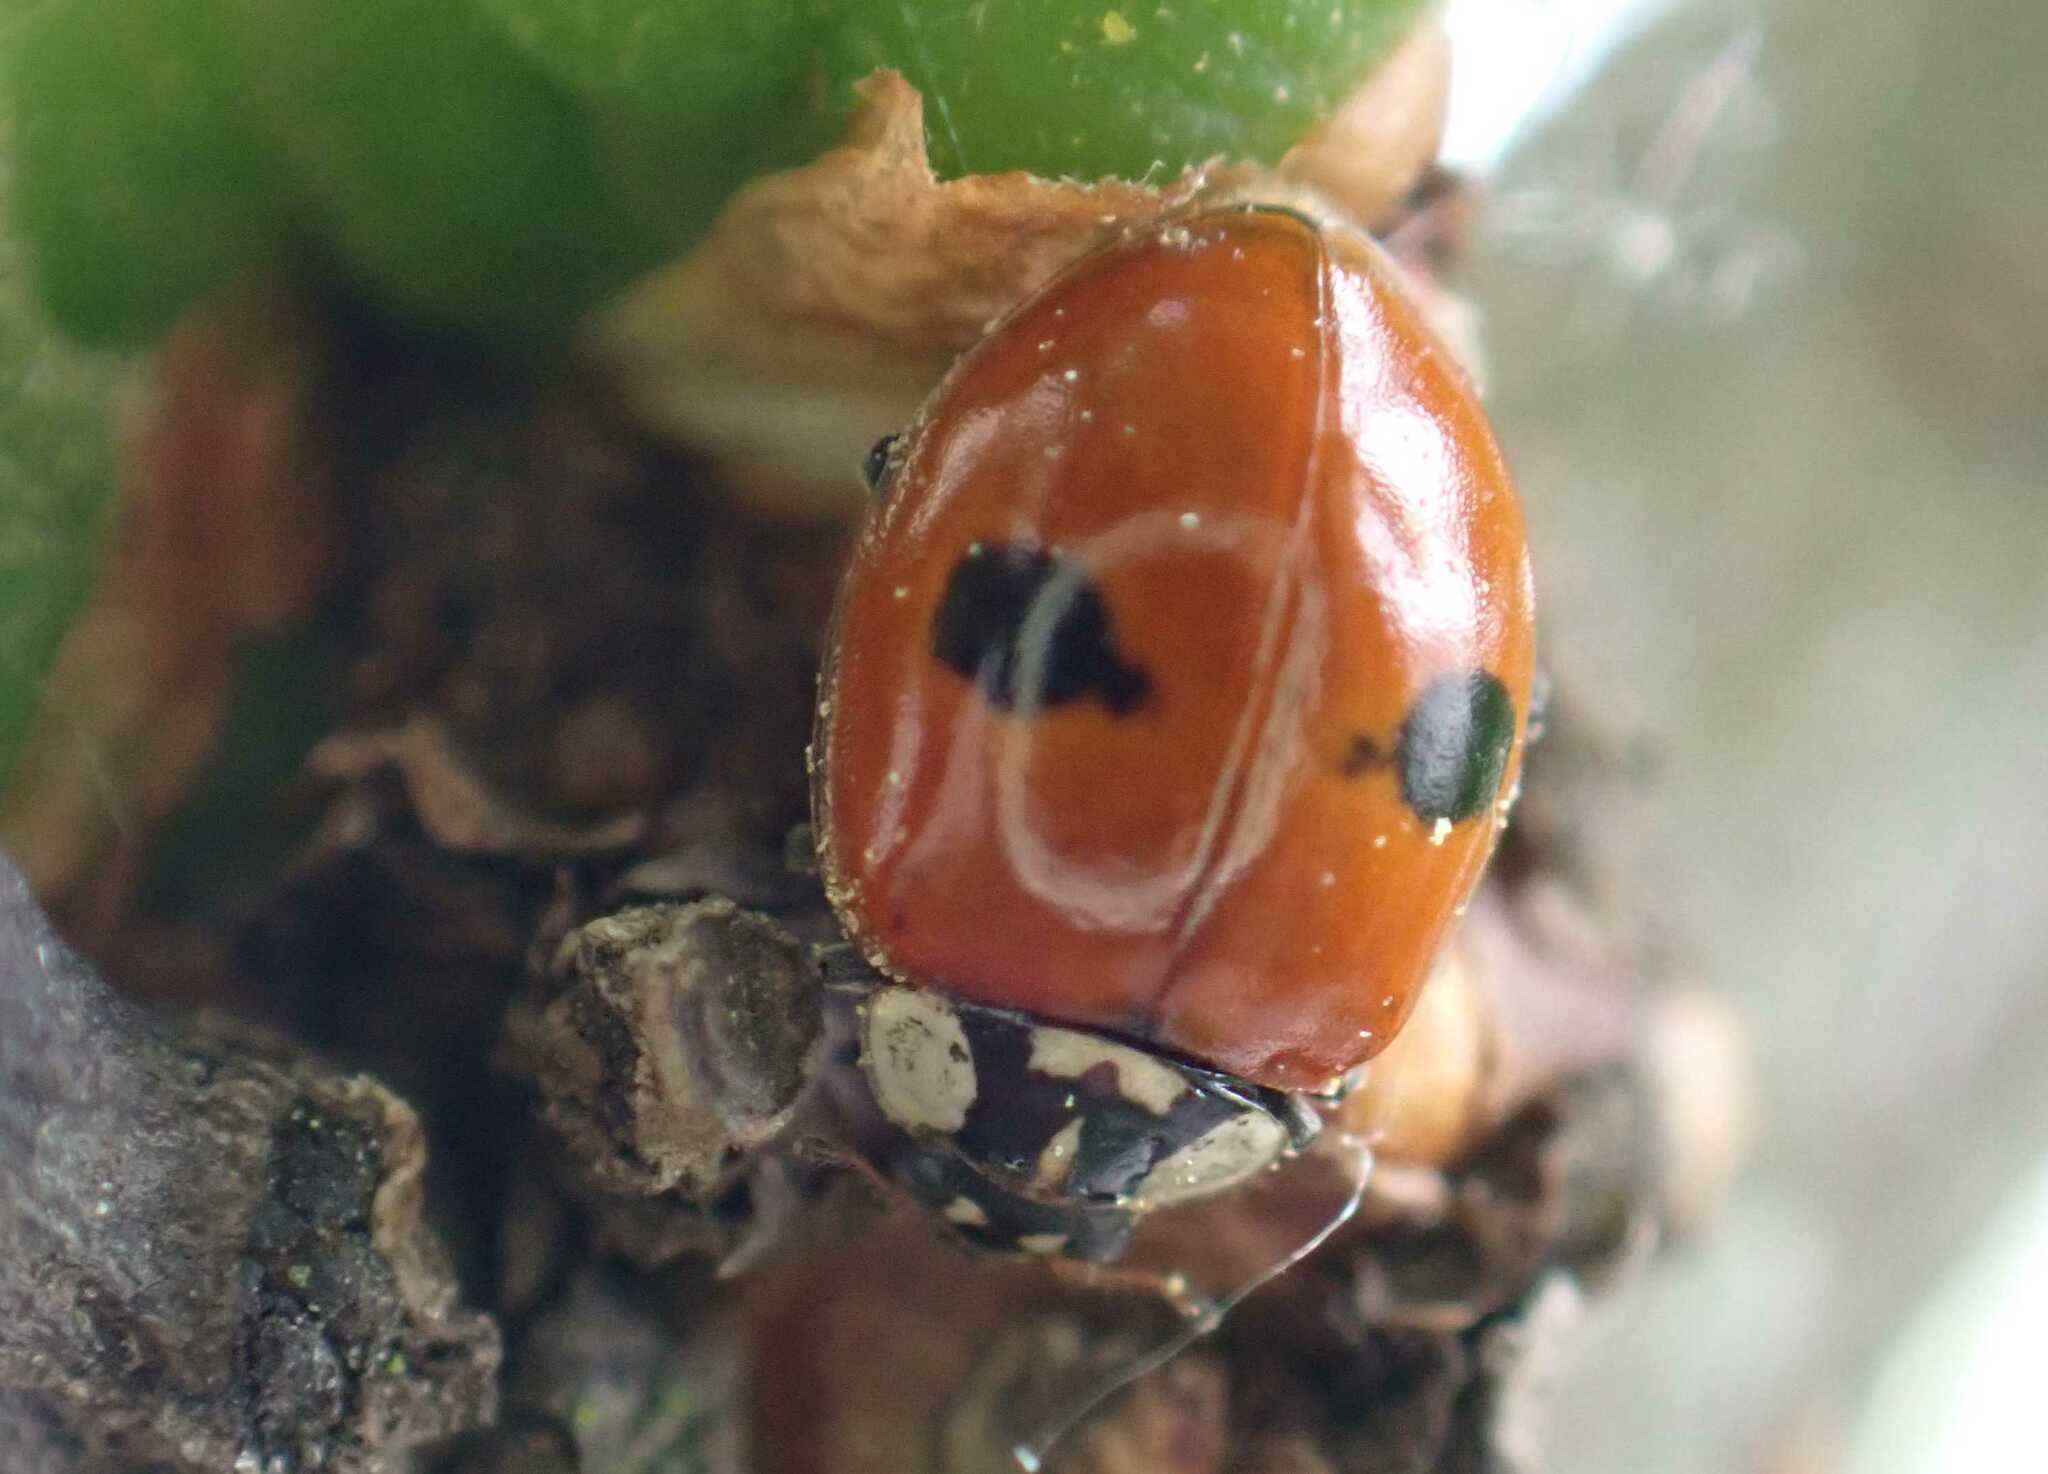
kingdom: Animalia
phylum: Arthropoda
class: Insecta
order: Coleoptera
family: Coccinellidae
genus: Adalia
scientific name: Adalia bipunctata
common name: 2-spot ladybird
